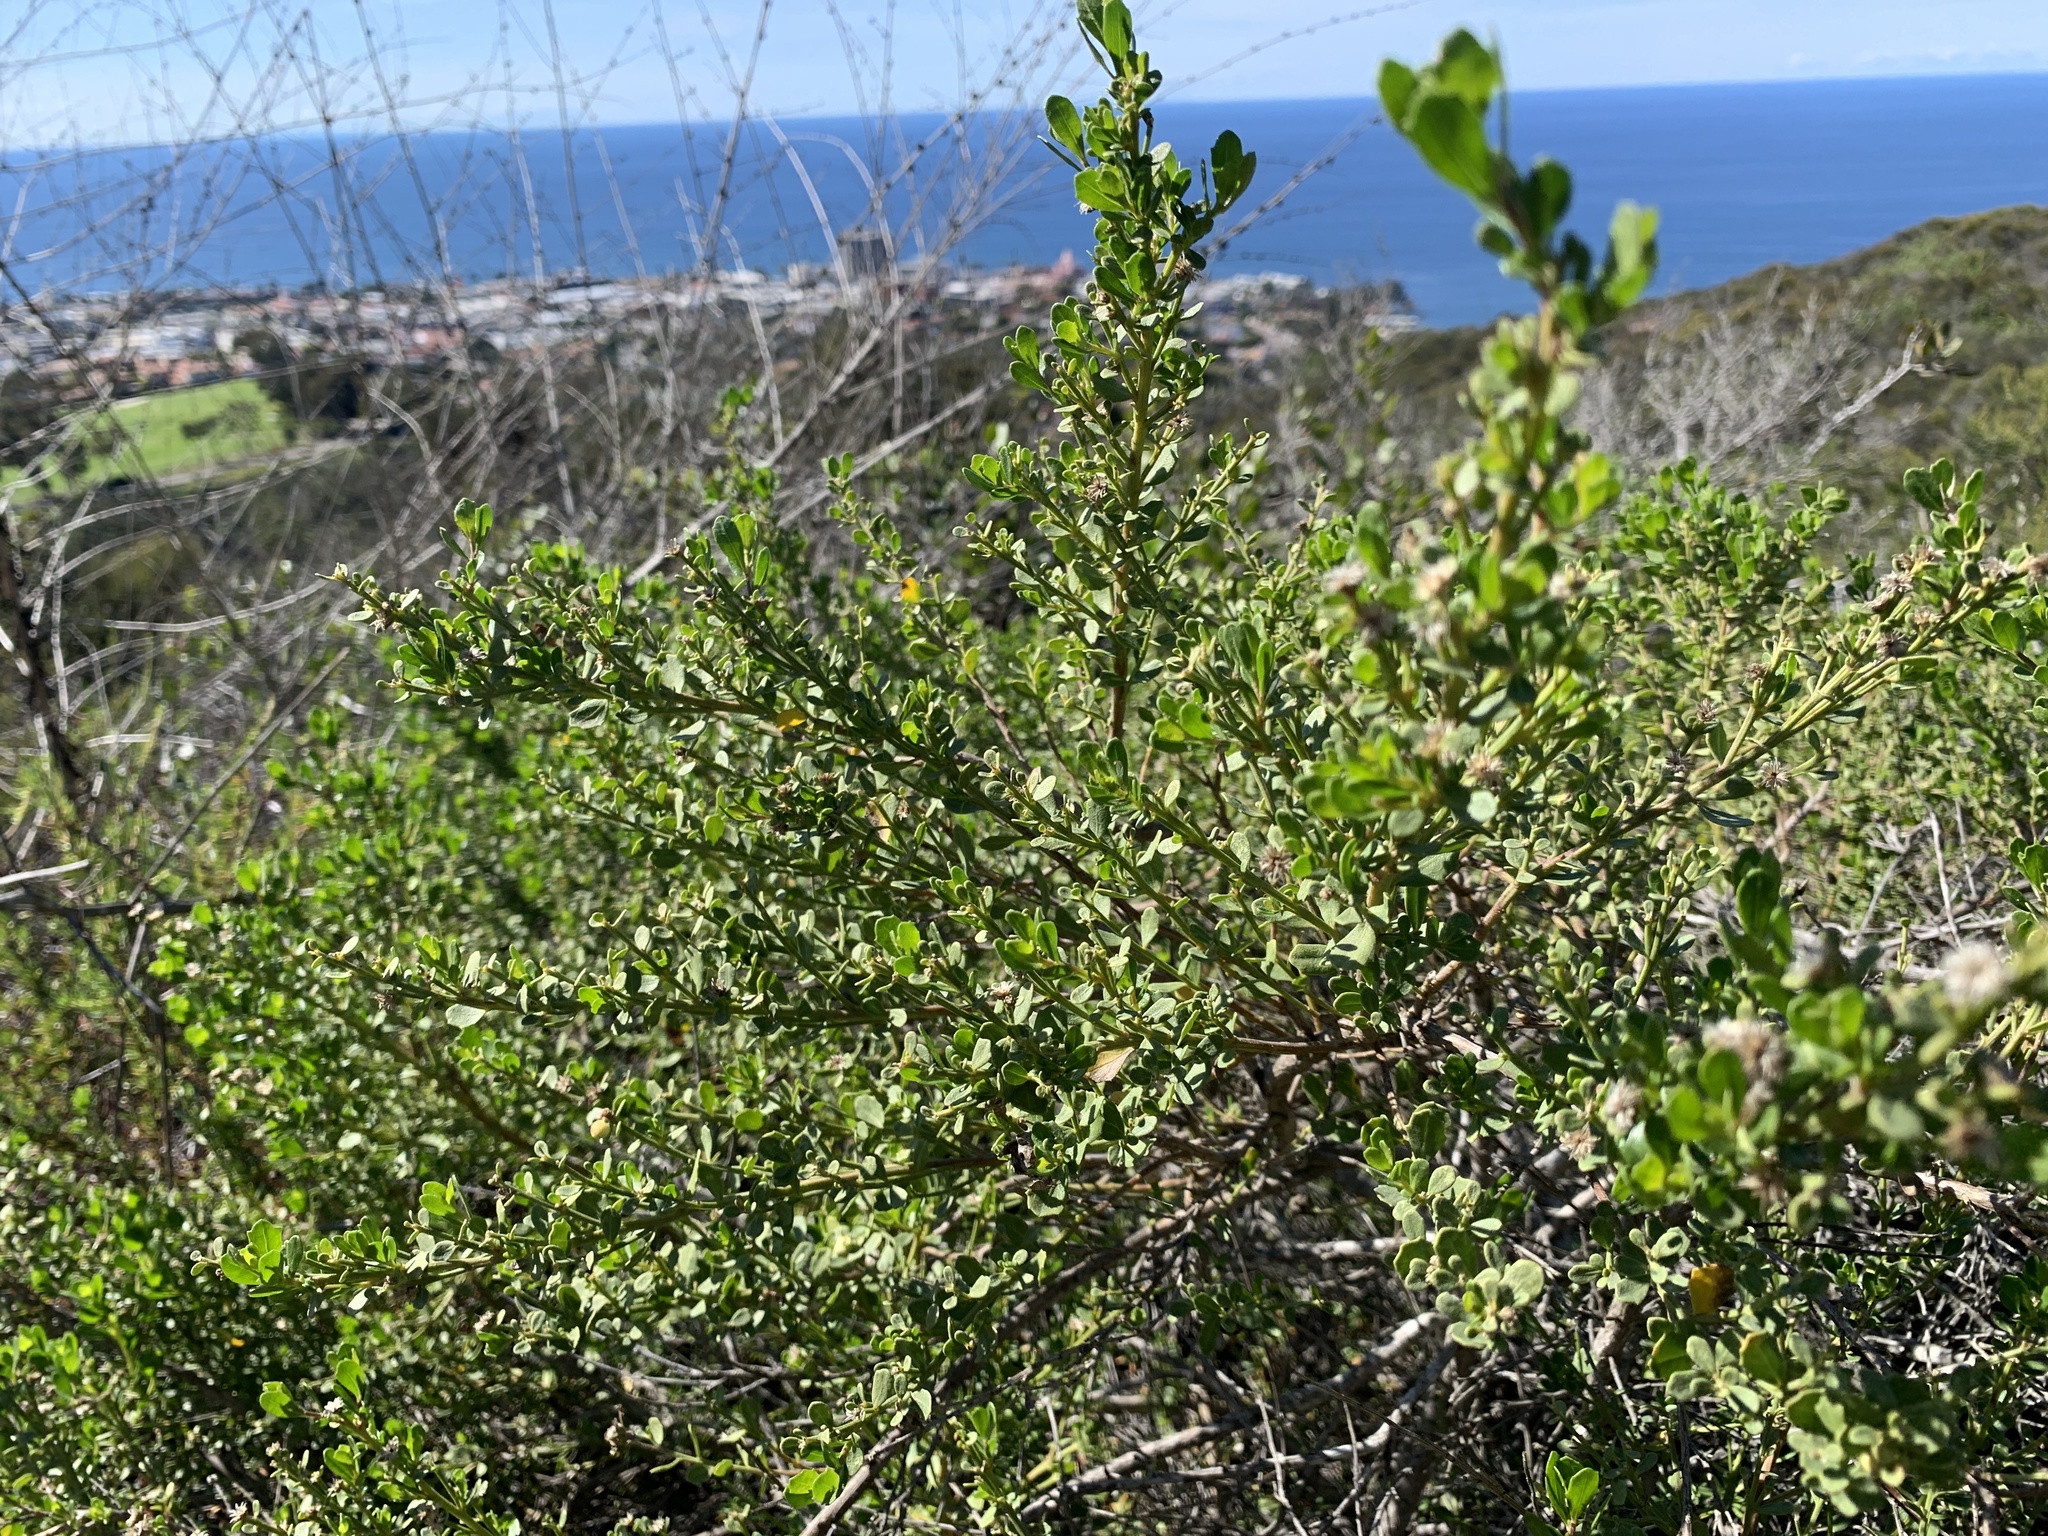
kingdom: Plantae
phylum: Tracheophyta
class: Magnoliopsida
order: Asterales
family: Asteraceae
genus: Baccharis
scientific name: Baccharis pilularis
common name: Coyotebrush
